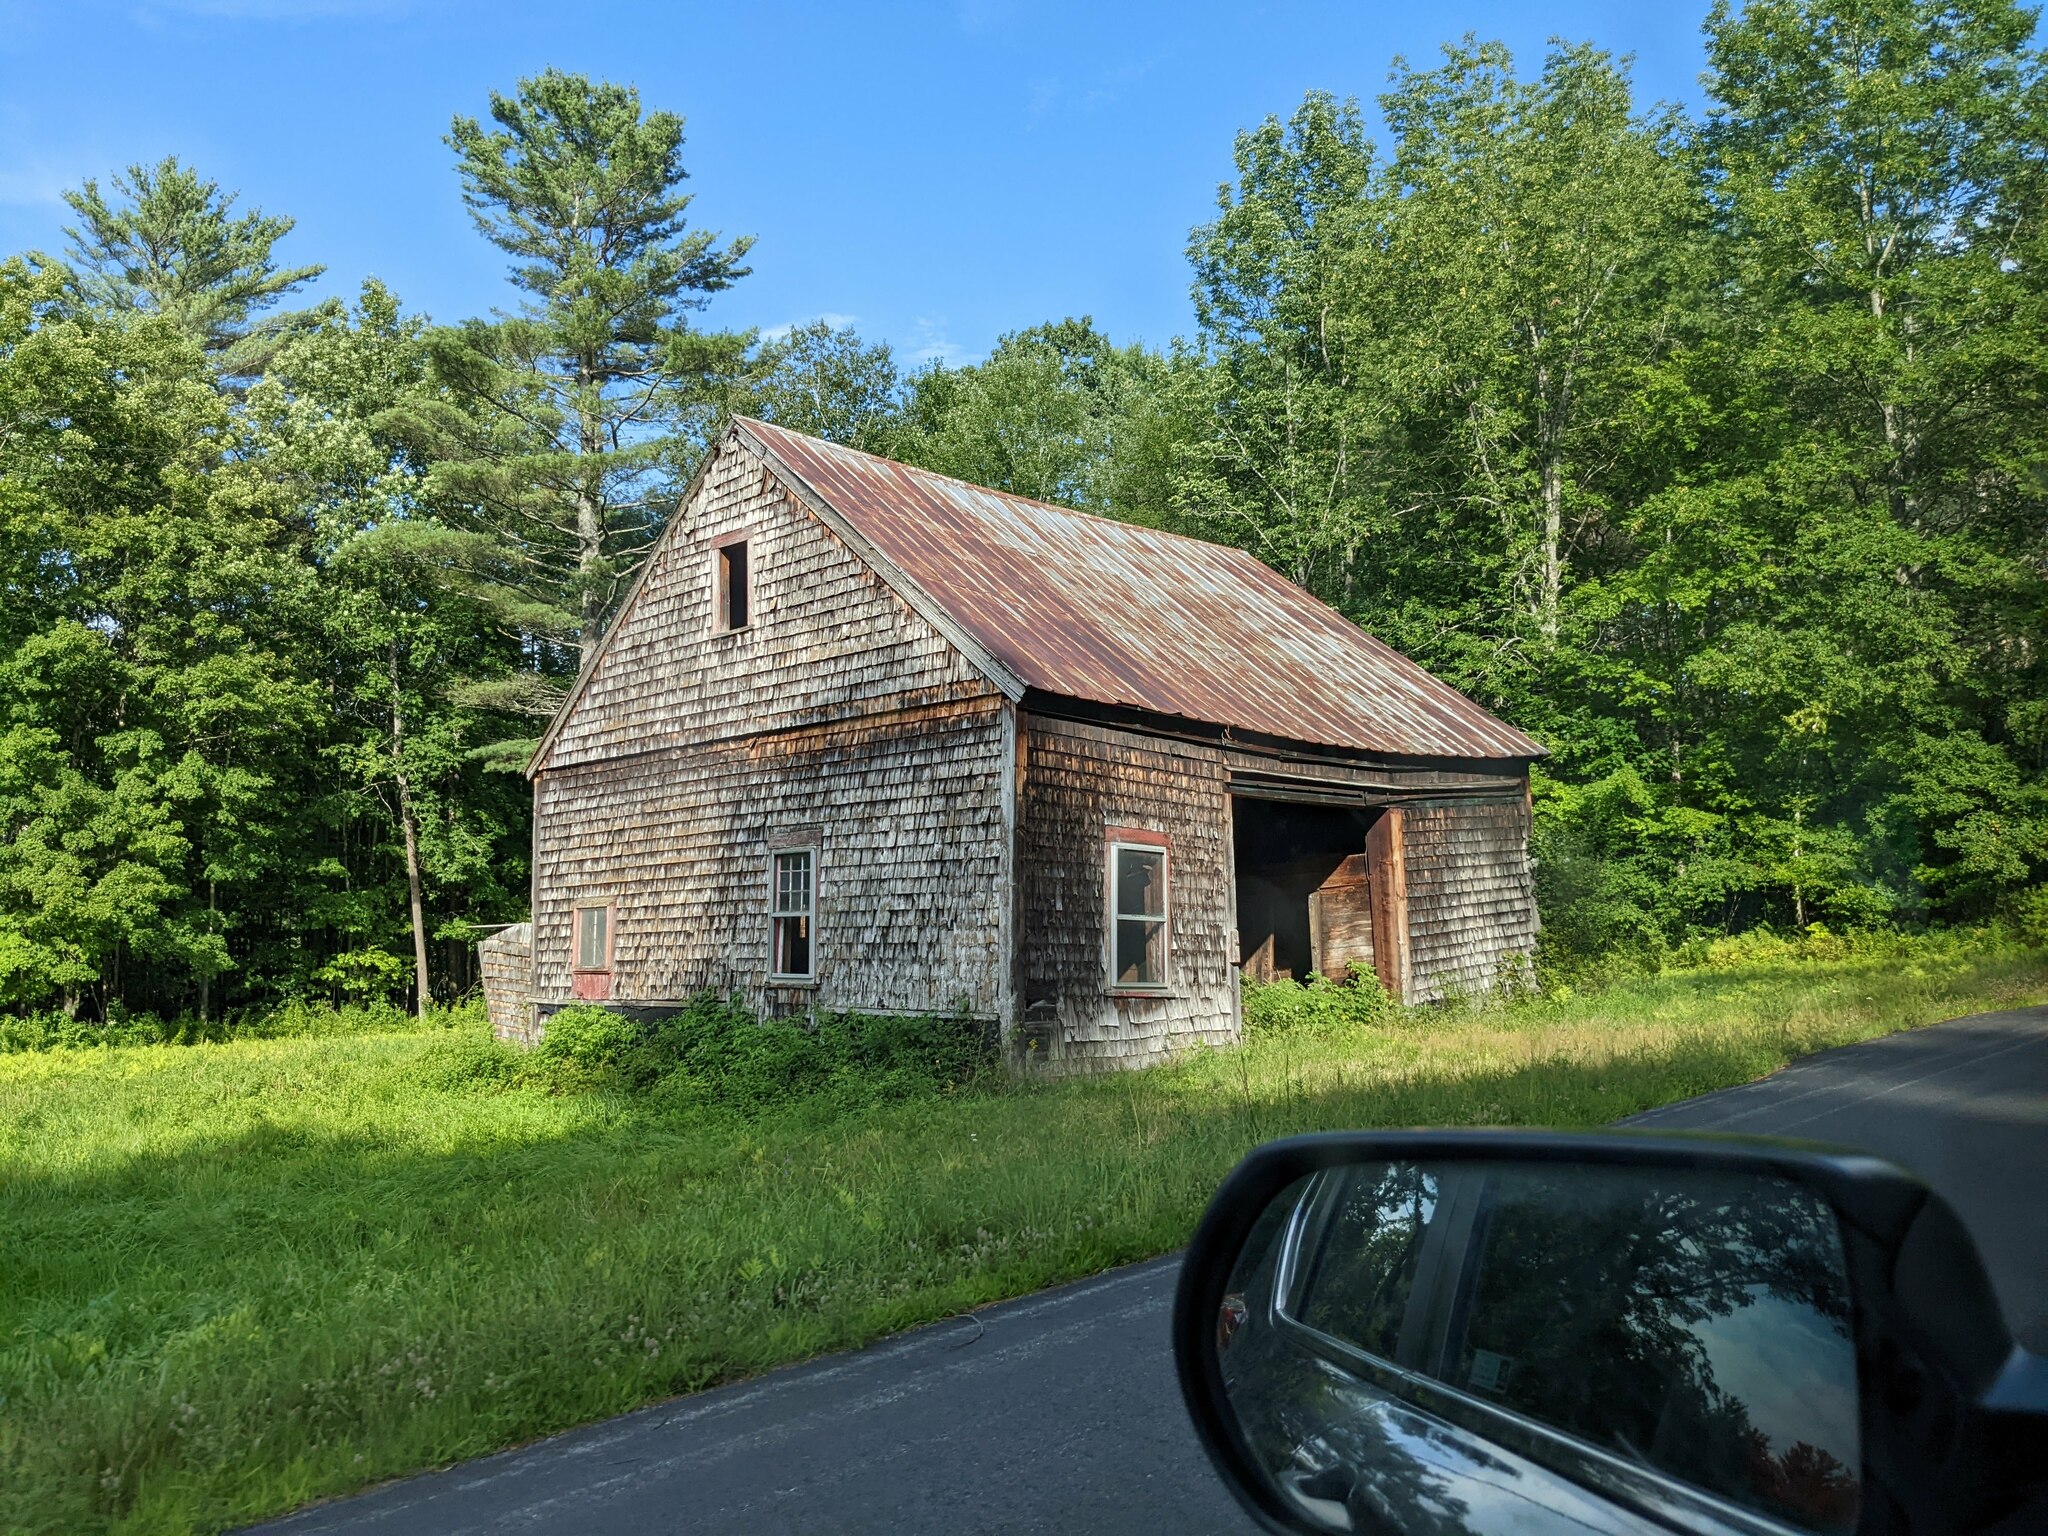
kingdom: Plantae
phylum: Tracheophyta
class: Pinopsida
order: Pinales
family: Pinaceae
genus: Pinus
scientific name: Pinus strobus
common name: Weymouth pine
